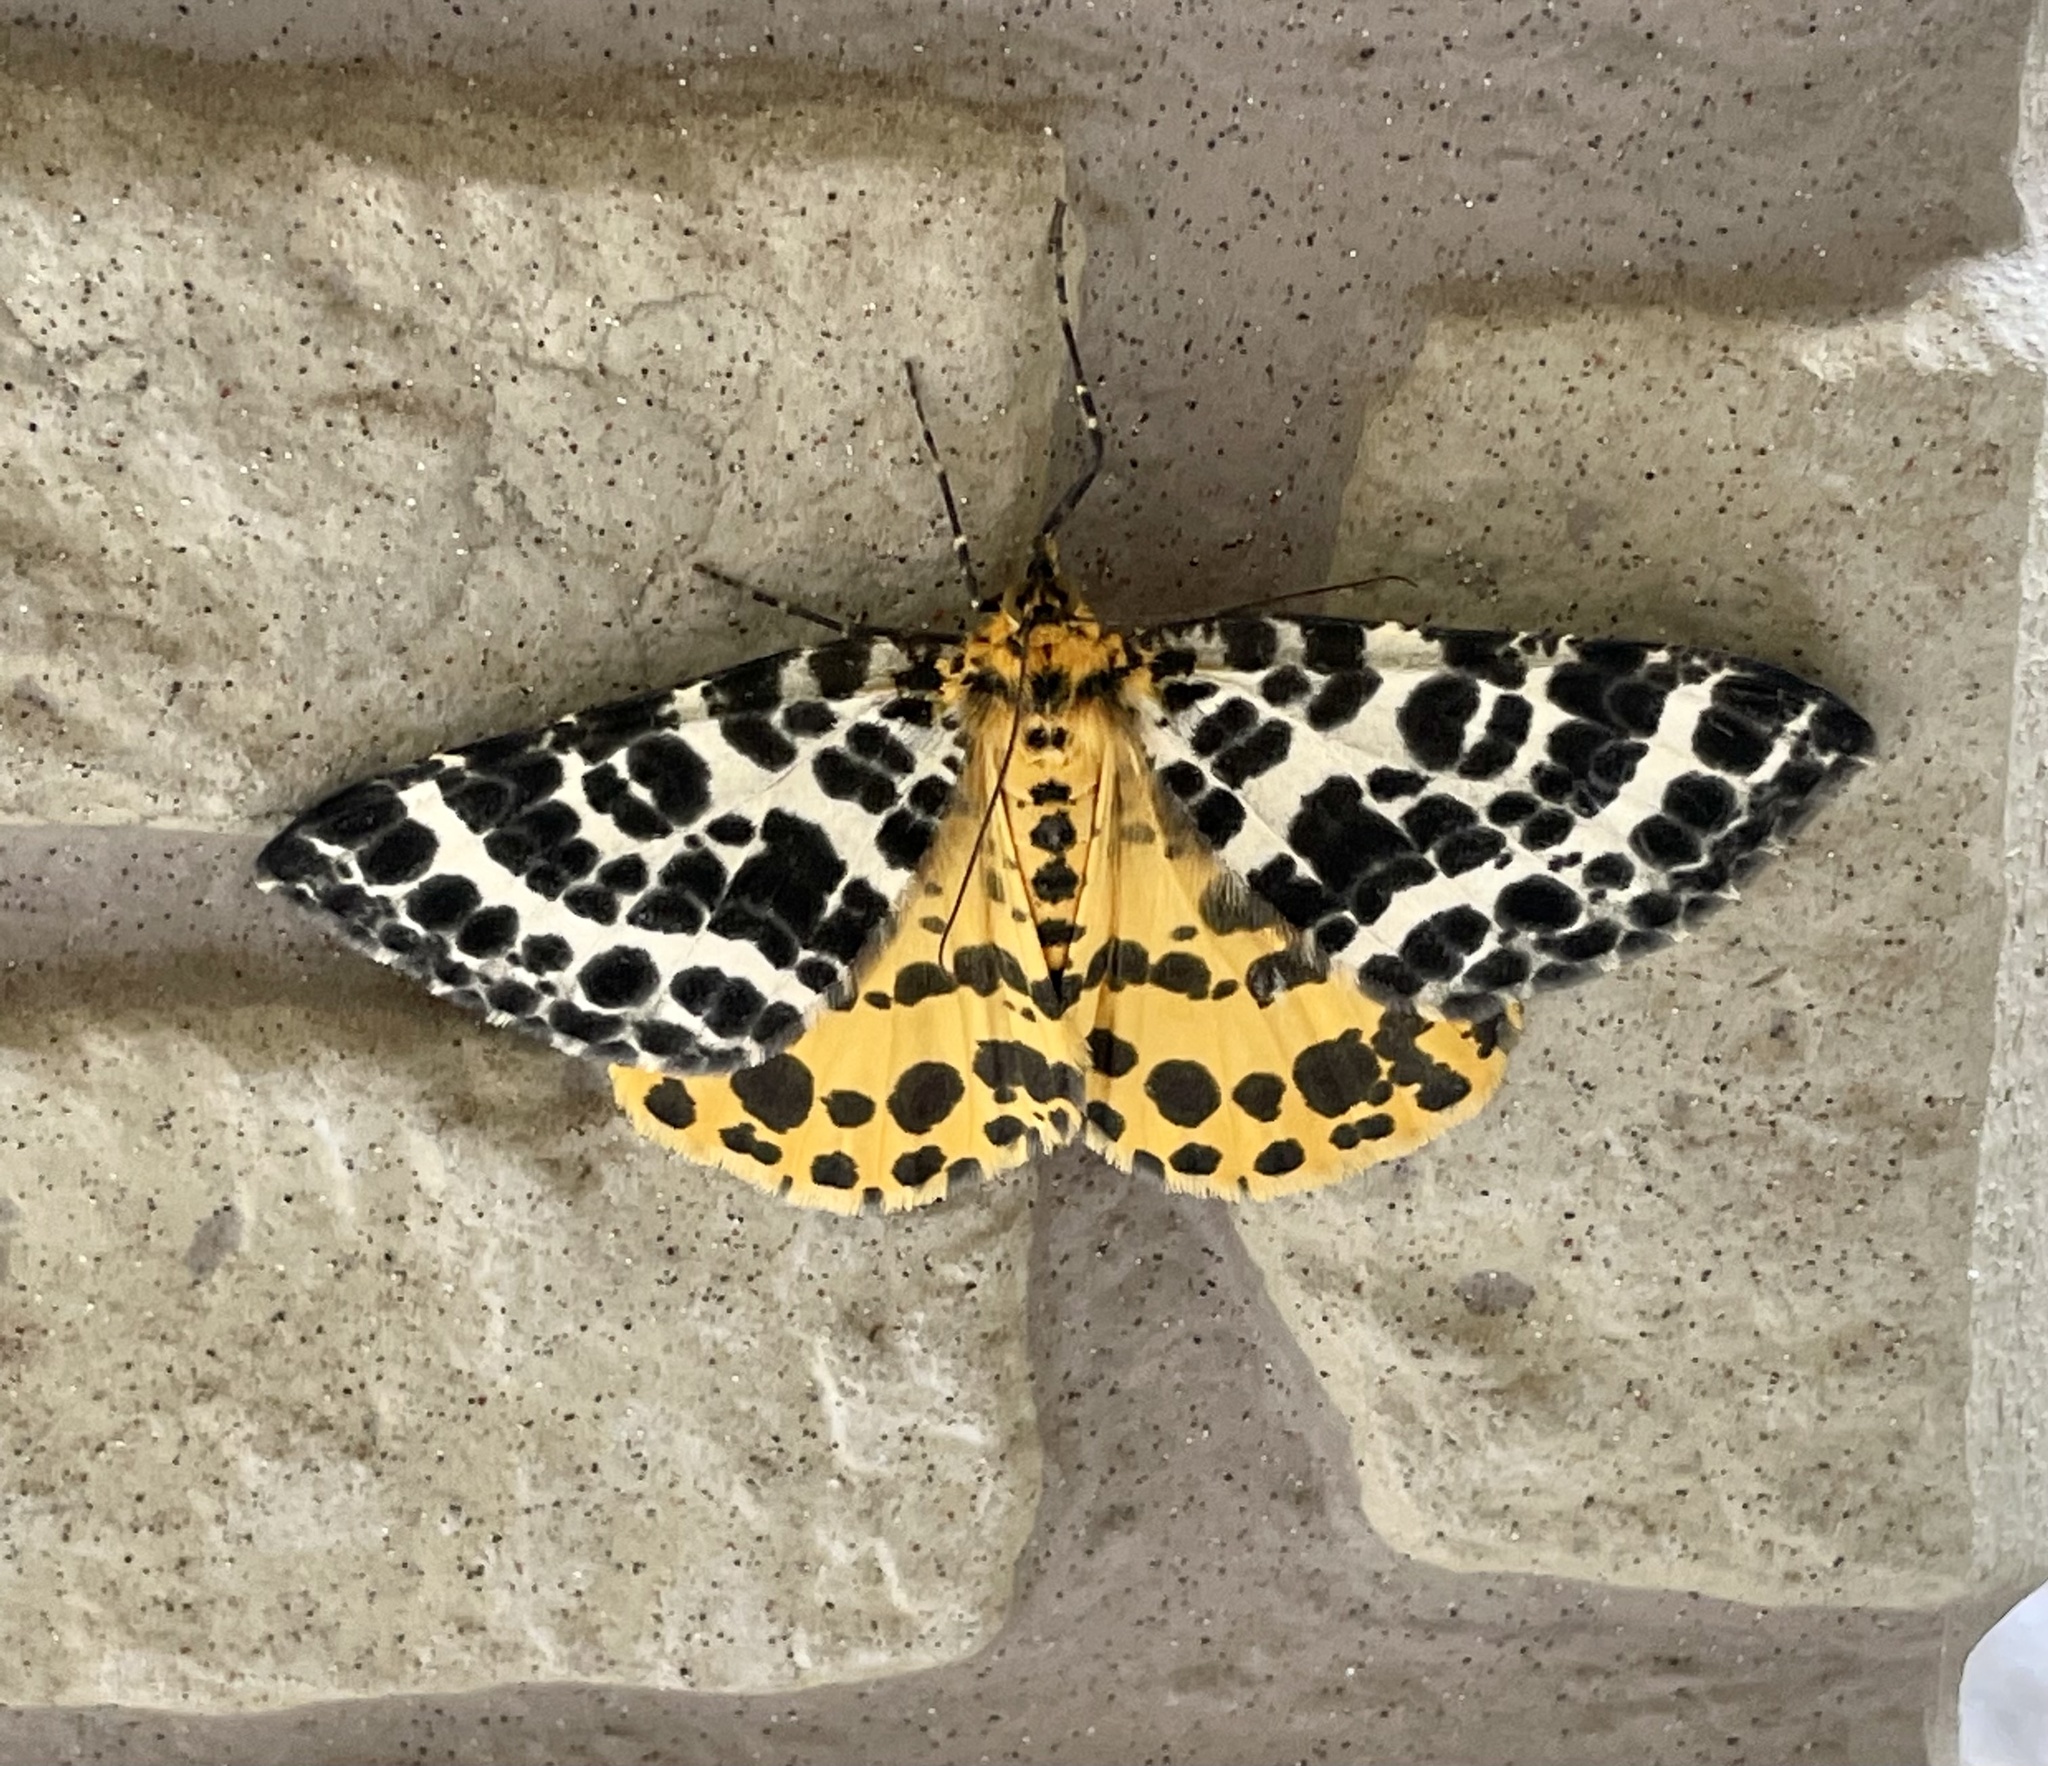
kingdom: Animalia
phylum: Arthropoda
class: Insecta
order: Lepidoptera
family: Geometridae
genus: Arichanna
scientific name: Arichanna melanaria
